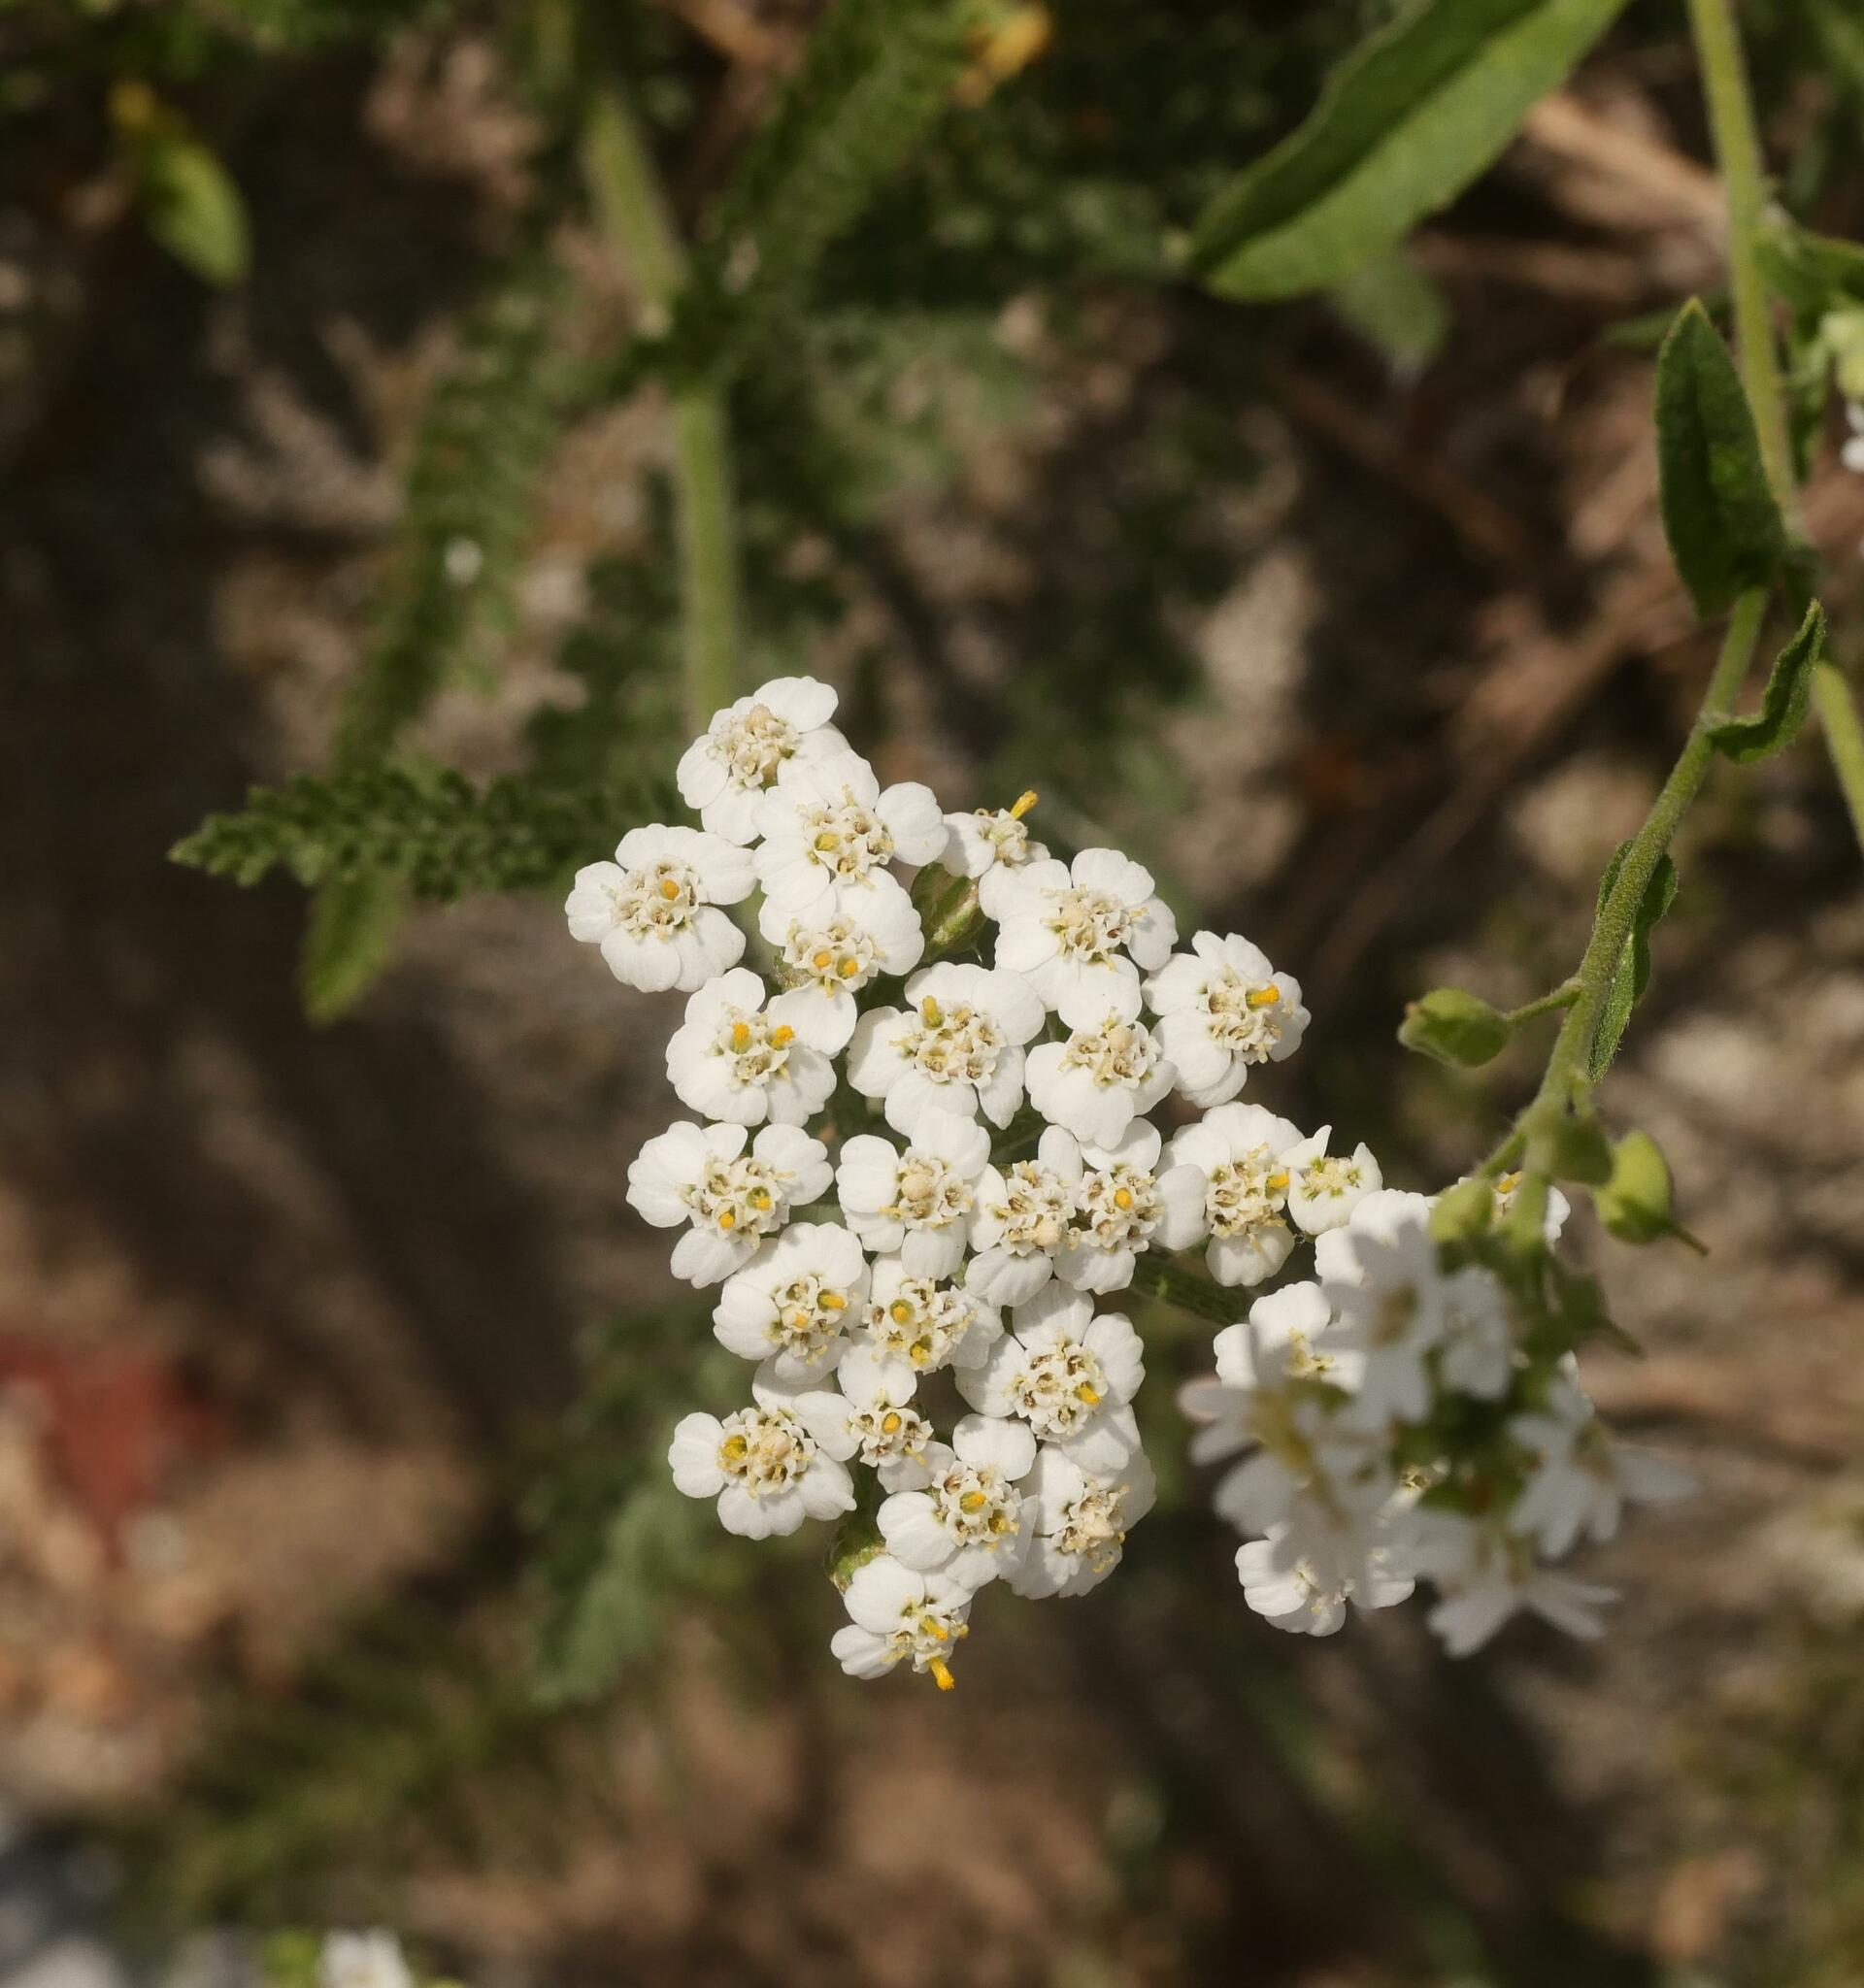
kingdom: Plantae
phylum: Tracheophyta
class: Magnoliopsida
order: Asterales
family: Asteraceae
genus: Achillea
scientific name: Achillea millefolium
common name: Yarrow
